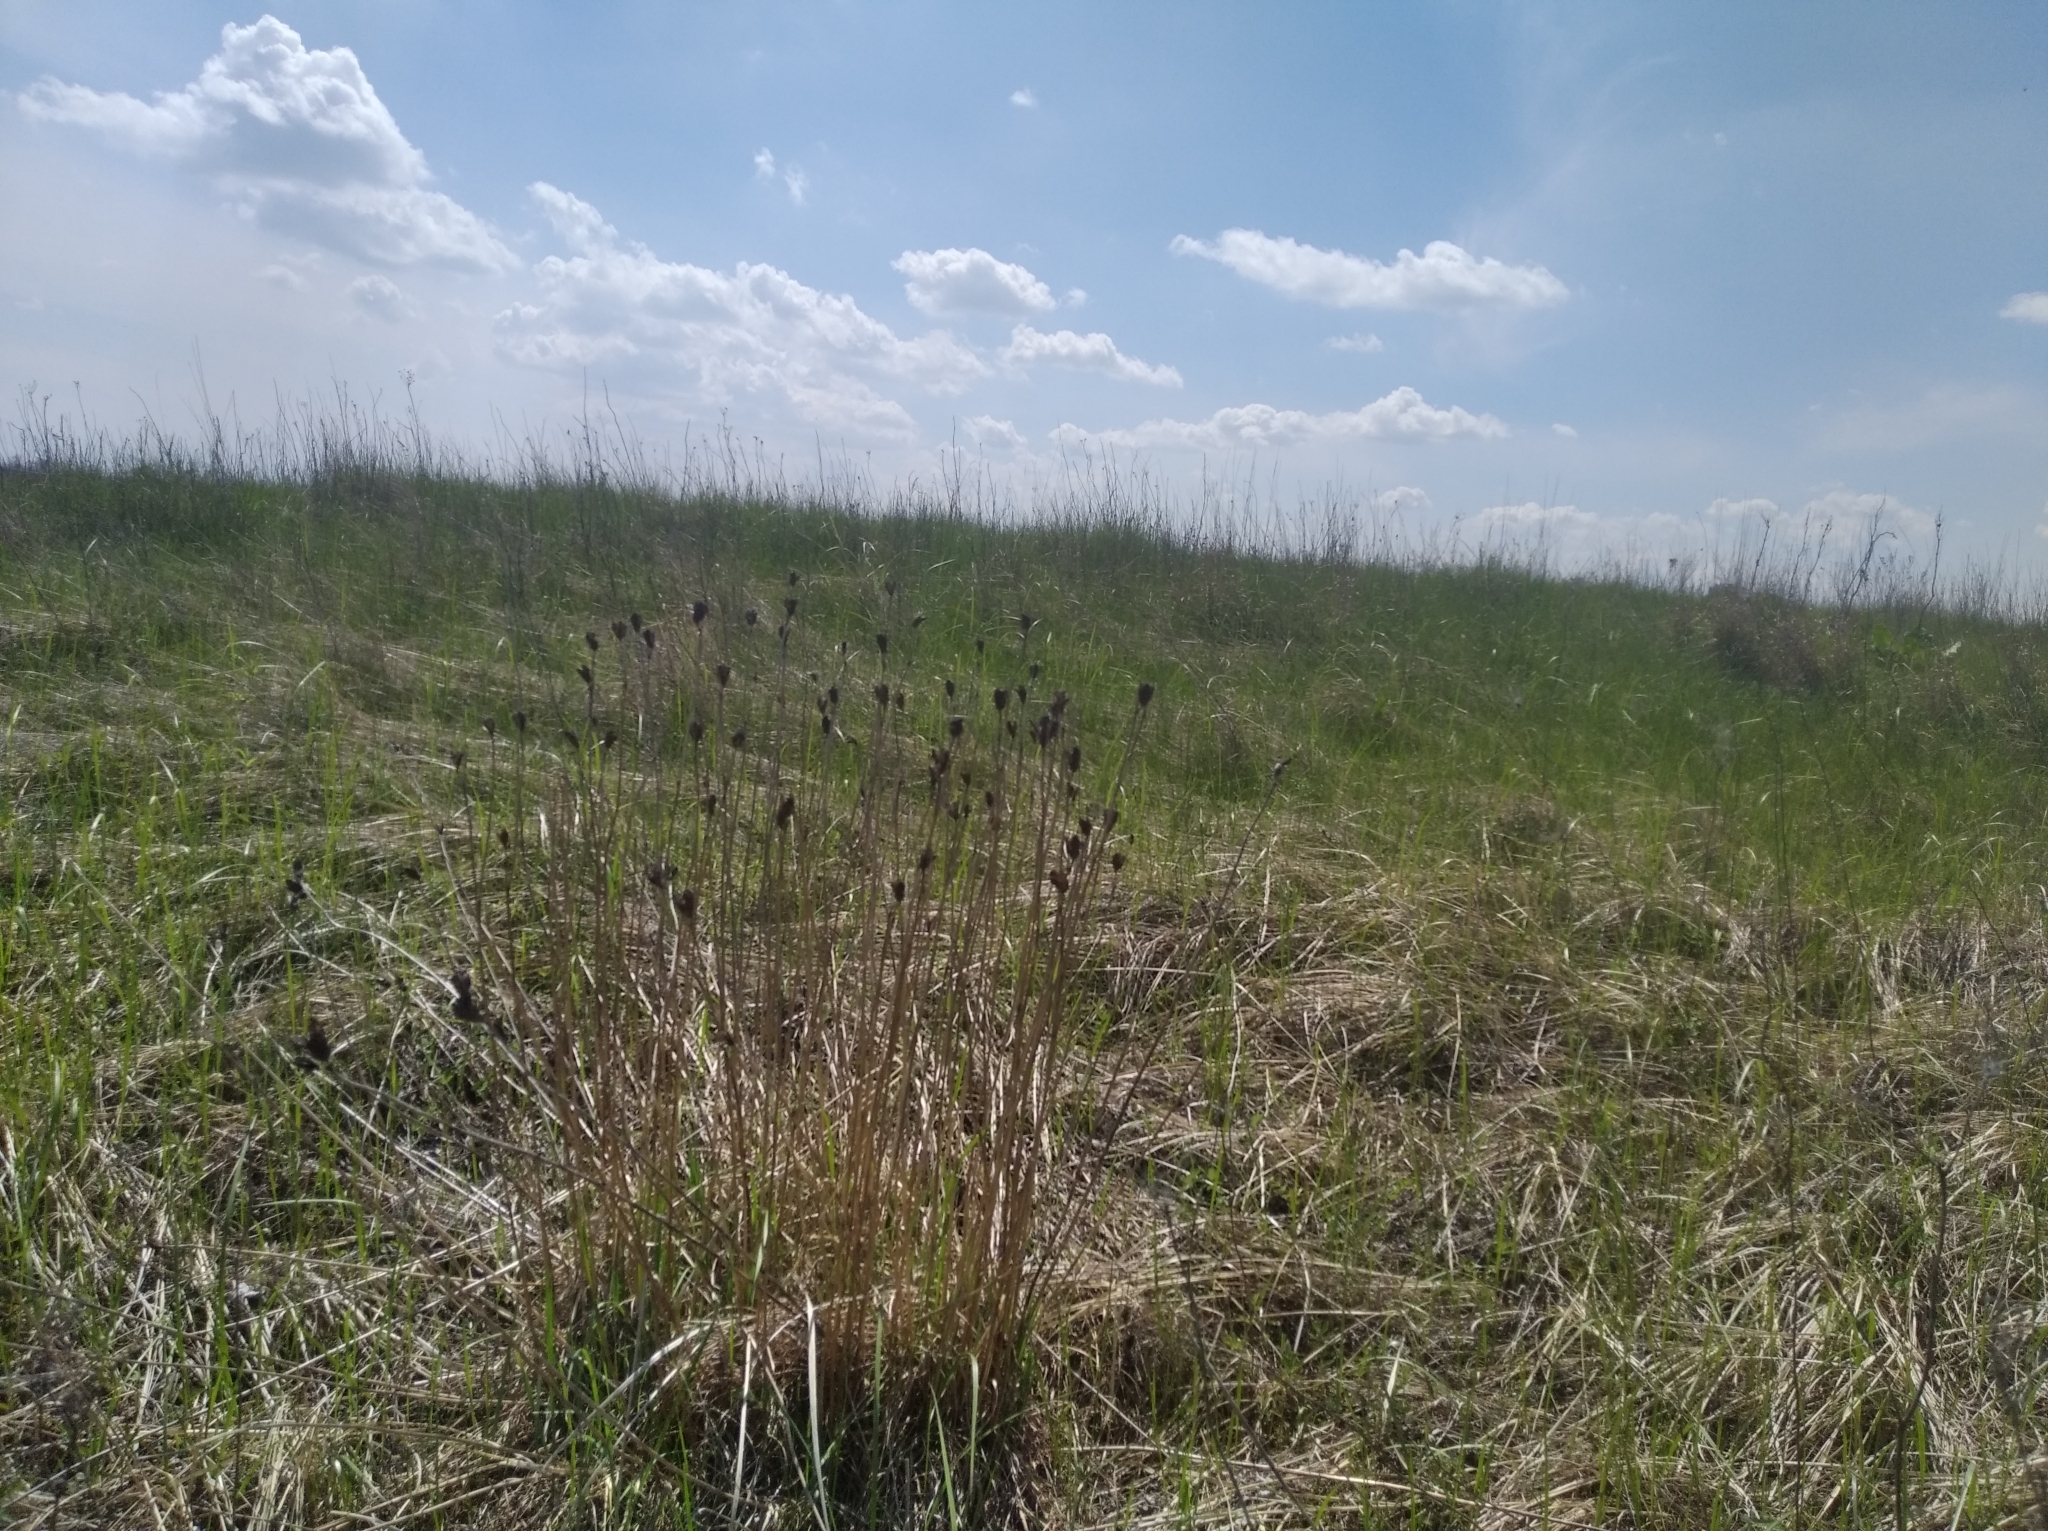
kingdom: Plantae
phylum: Tracheophyta
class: Liliopsida
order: Asparagales
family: Iridaceae
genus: Iris
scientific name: Iris sibirica
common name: Siberian iris
